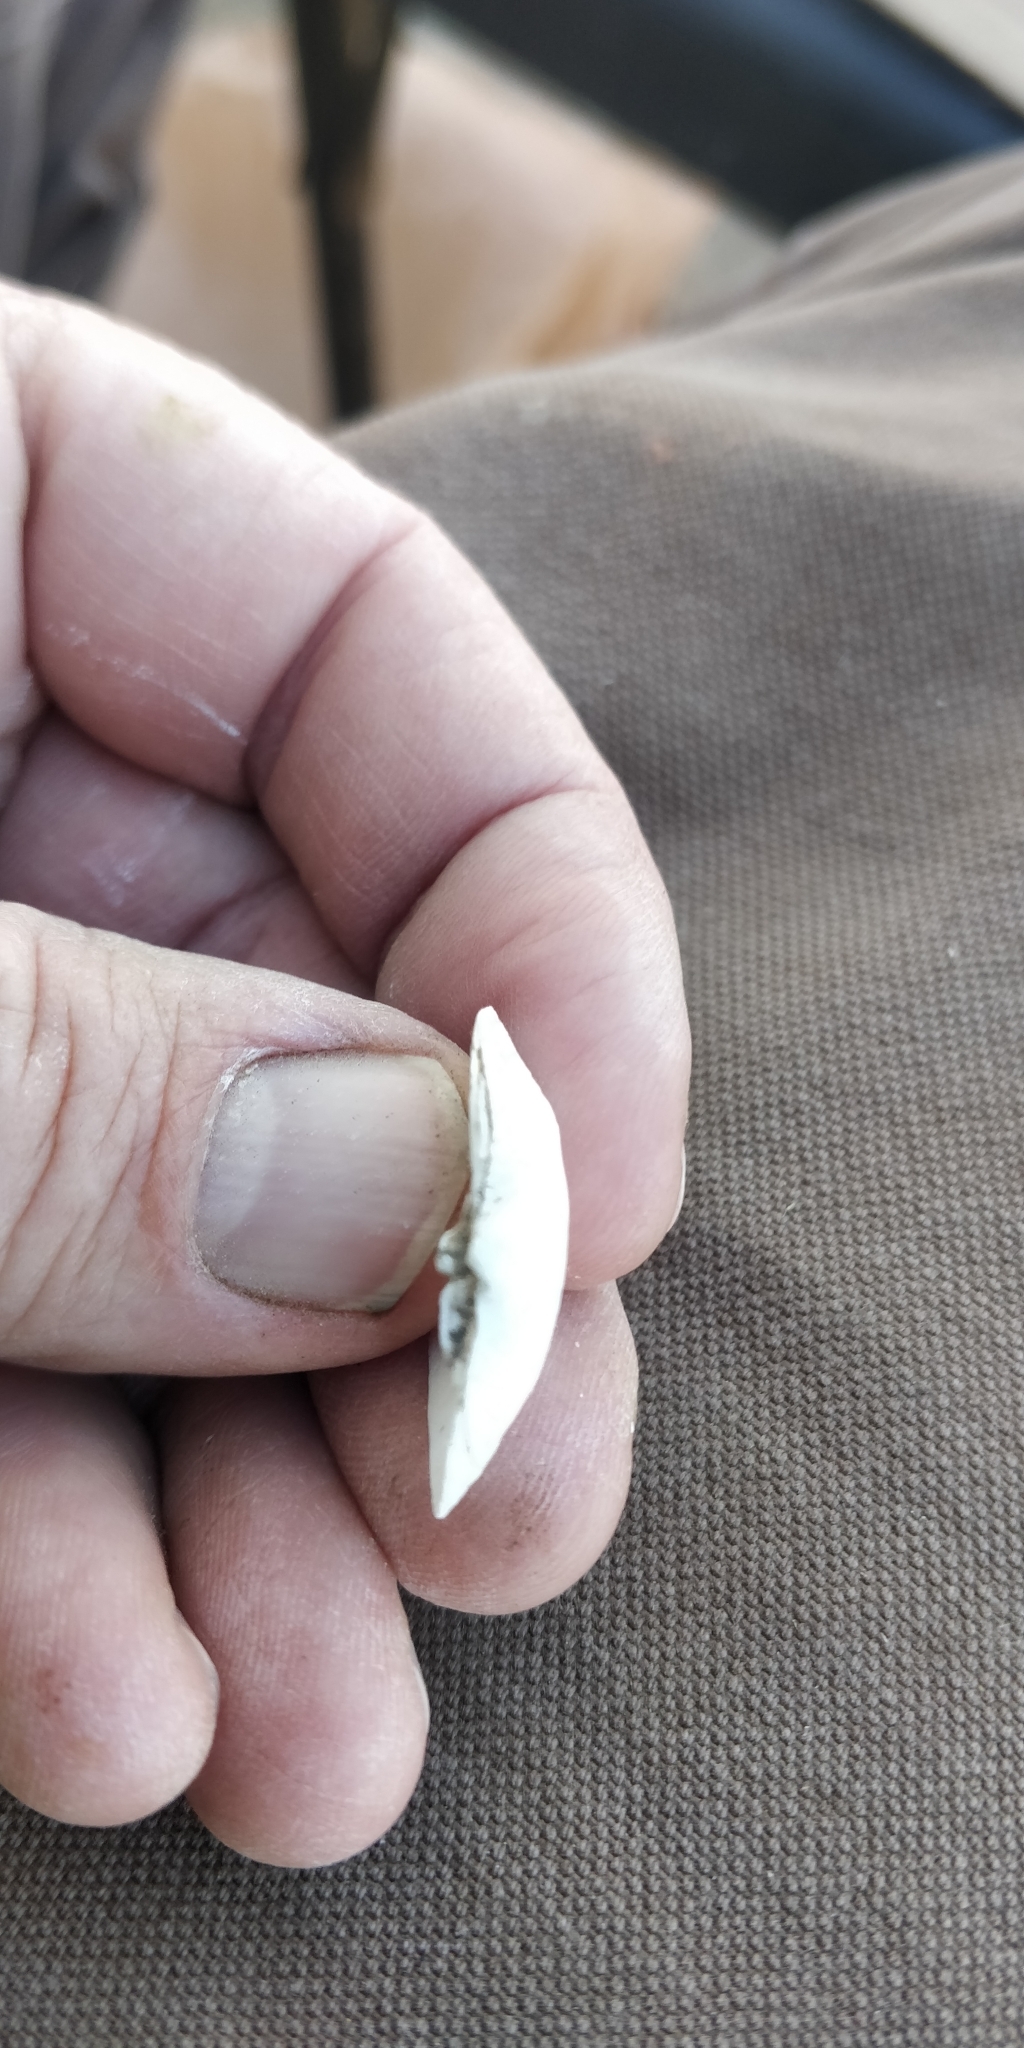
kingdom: Animalia
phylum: Mollusca
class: Bivalvia
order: Unionida
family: Unionidae
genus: Truncilla
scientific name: Truncilla donaciformis
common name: Fawnsfoot
